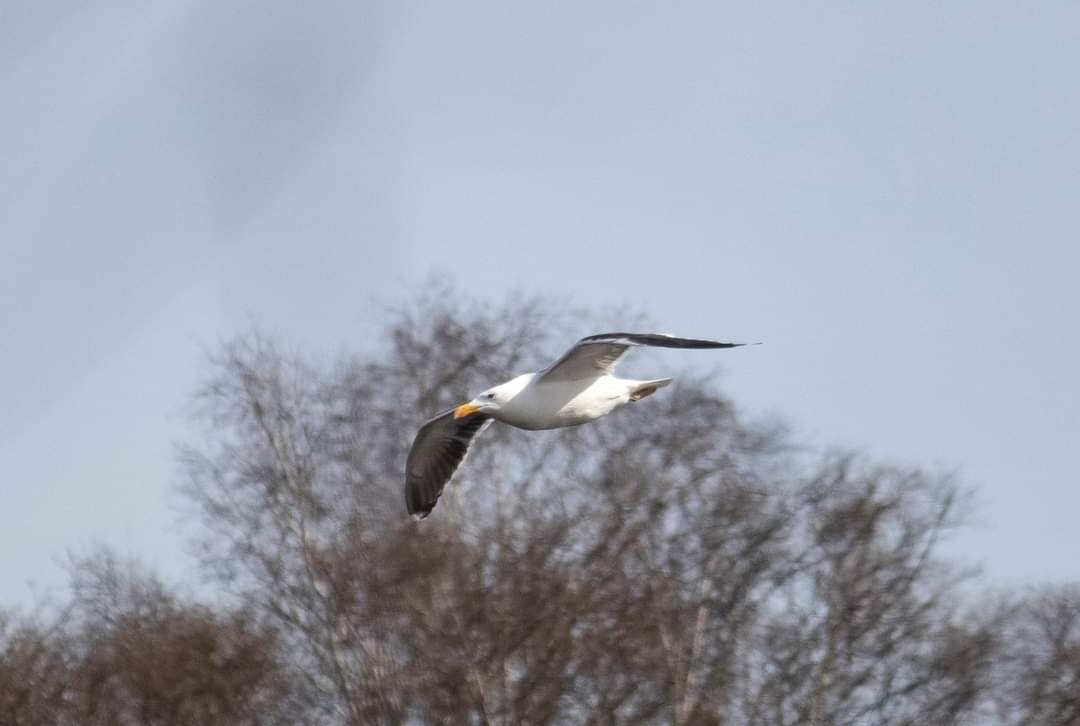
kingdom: Animalia
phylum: Chordata
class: Aves
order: Charadriiformes
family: Laridae
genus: Larus
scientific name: Larus marinus
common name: Great black-backed gull
